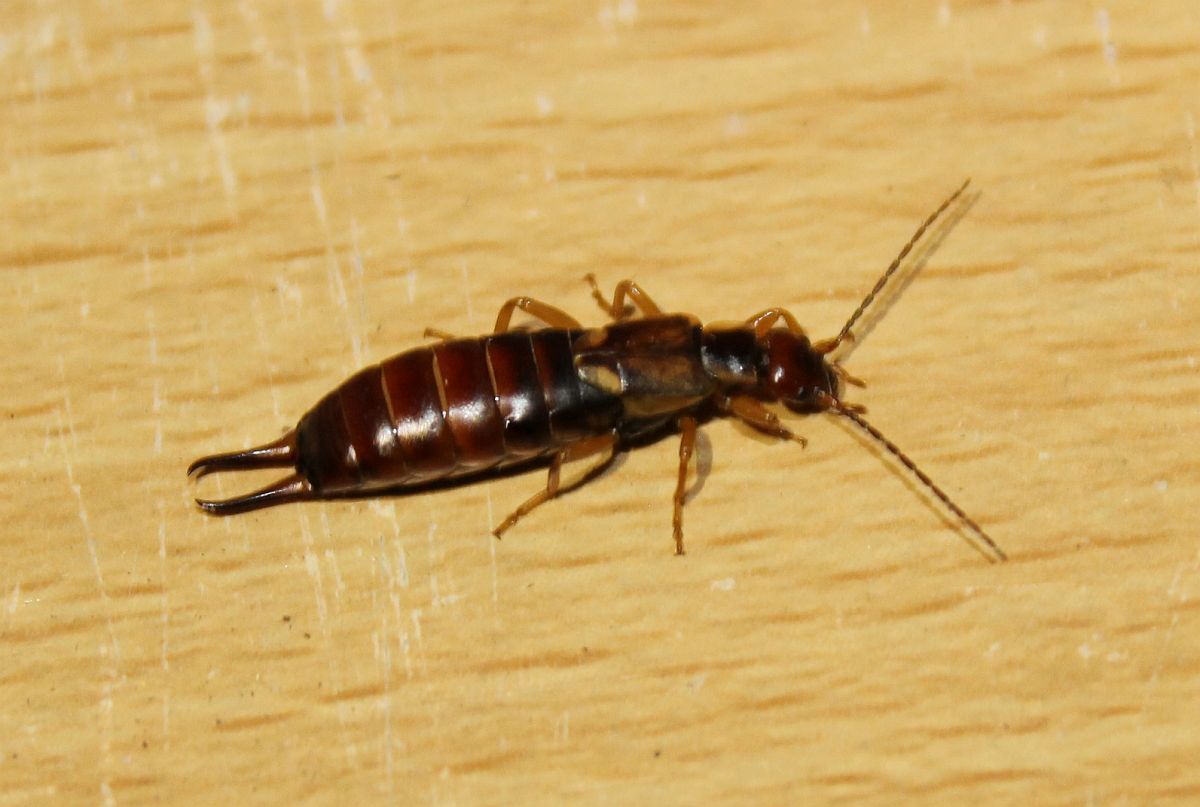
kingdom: Animalia
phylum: Arthropoda
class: Insecta
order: Dermaptera
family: Forficulidae
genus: Forficula
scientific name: Forficula
